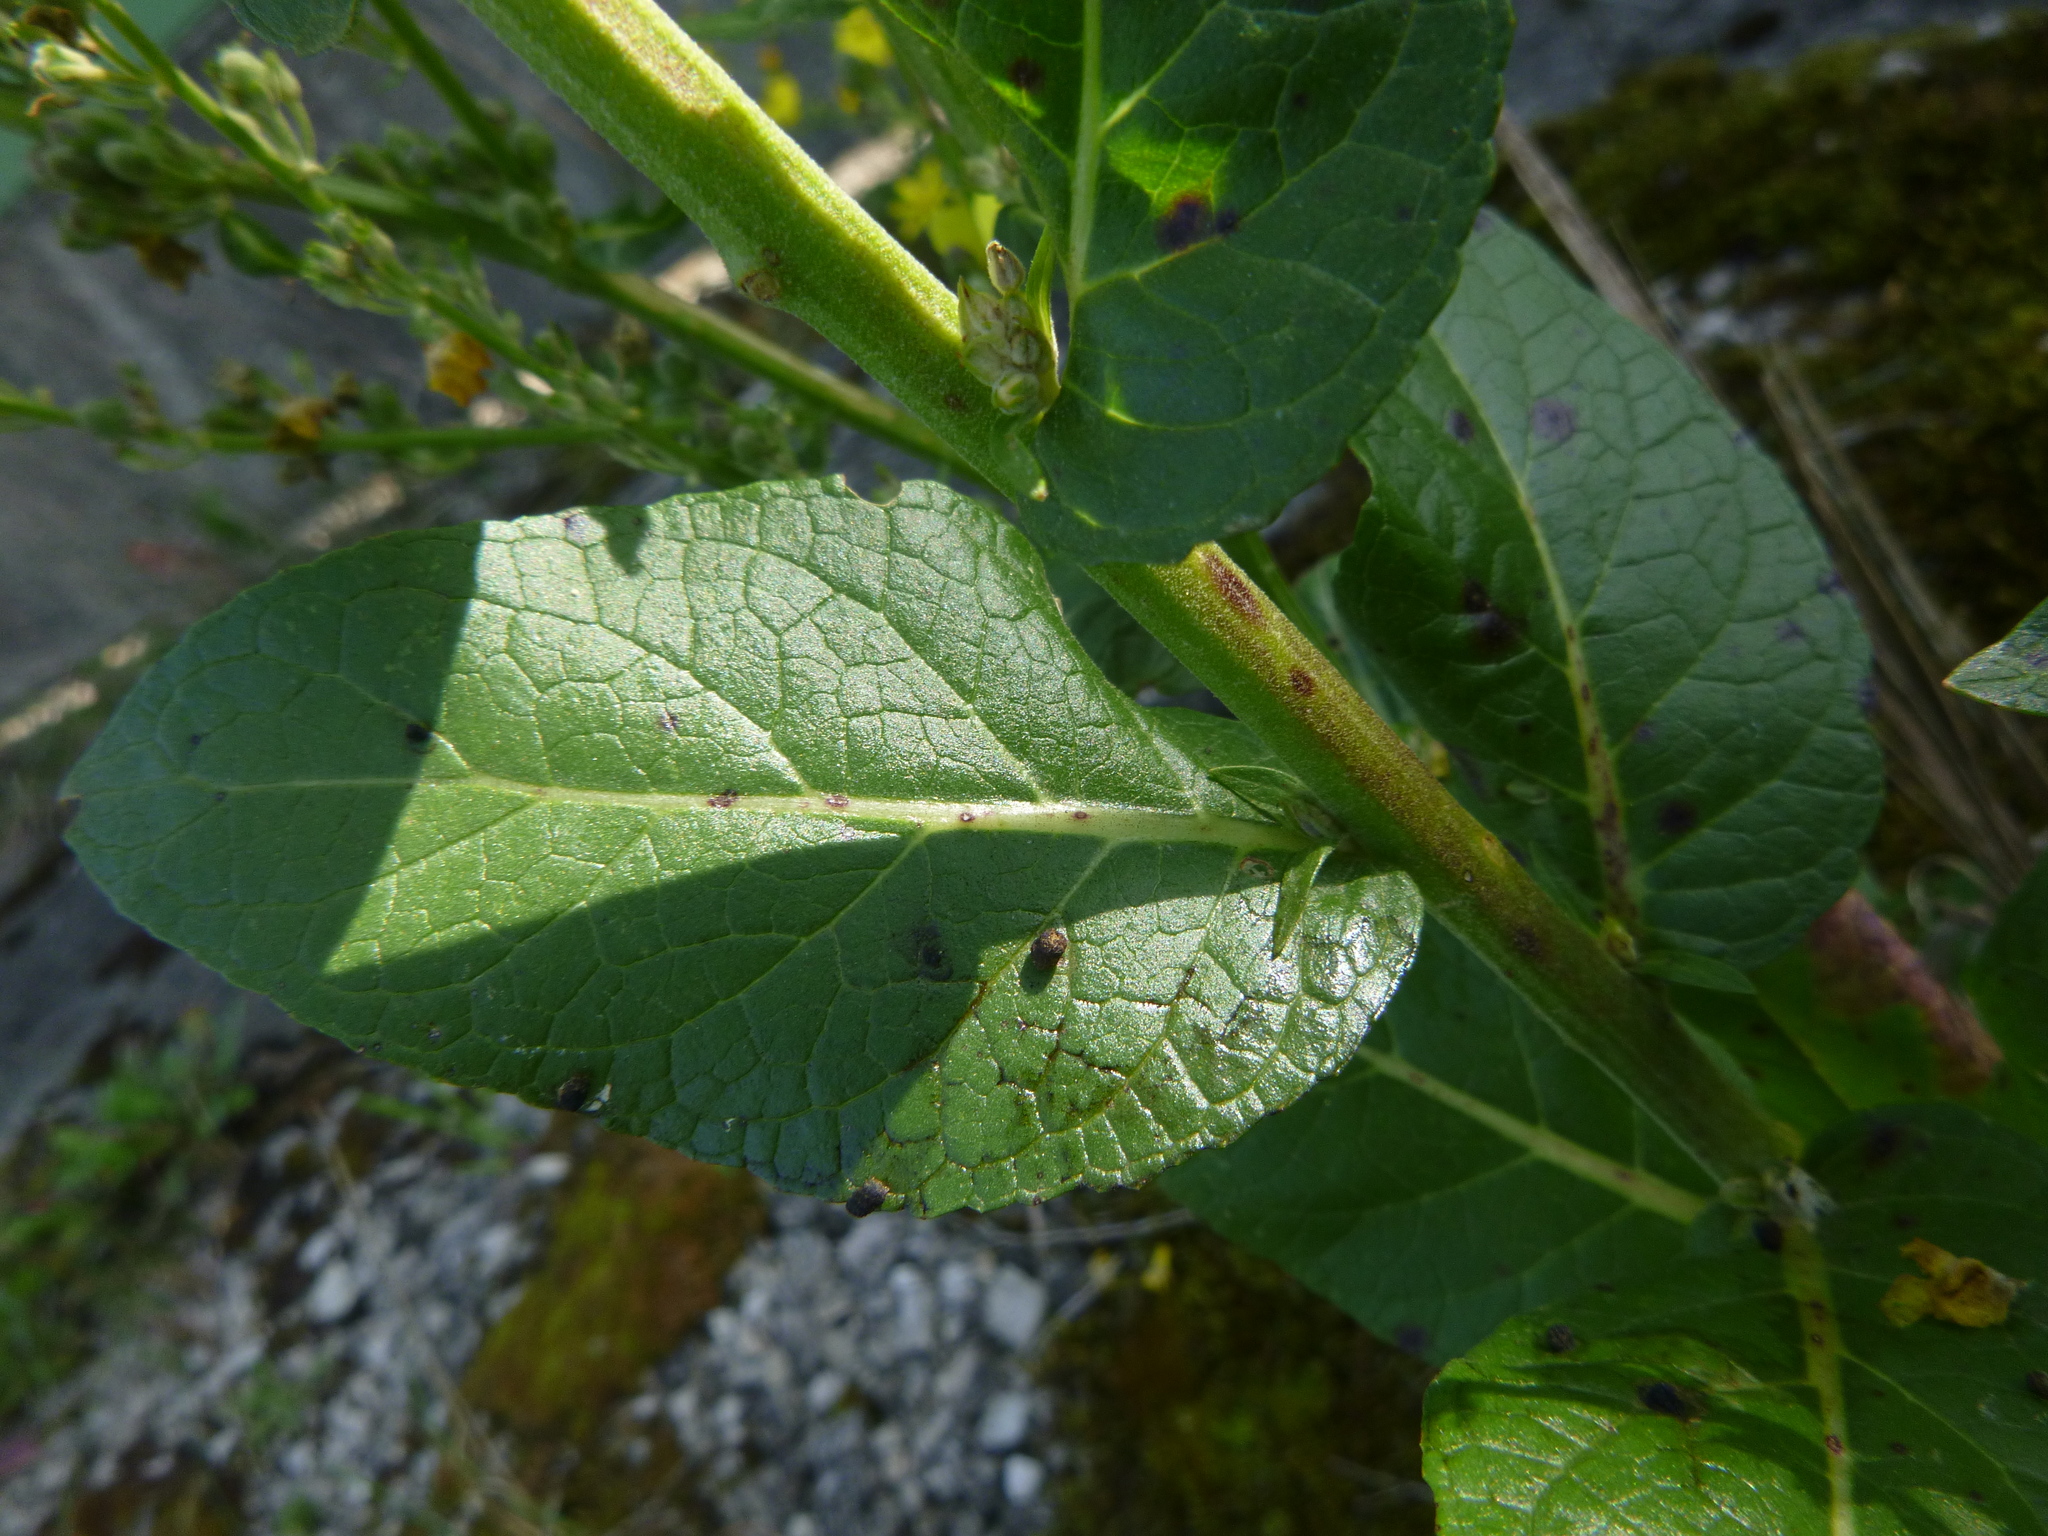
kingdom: Plantae
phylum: Tracheophyta
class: Magnoliopsida
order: Lamiales
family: Scrophulariaceae
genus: Verbascum
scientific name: Verbascum lychnitis
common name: White mullein
